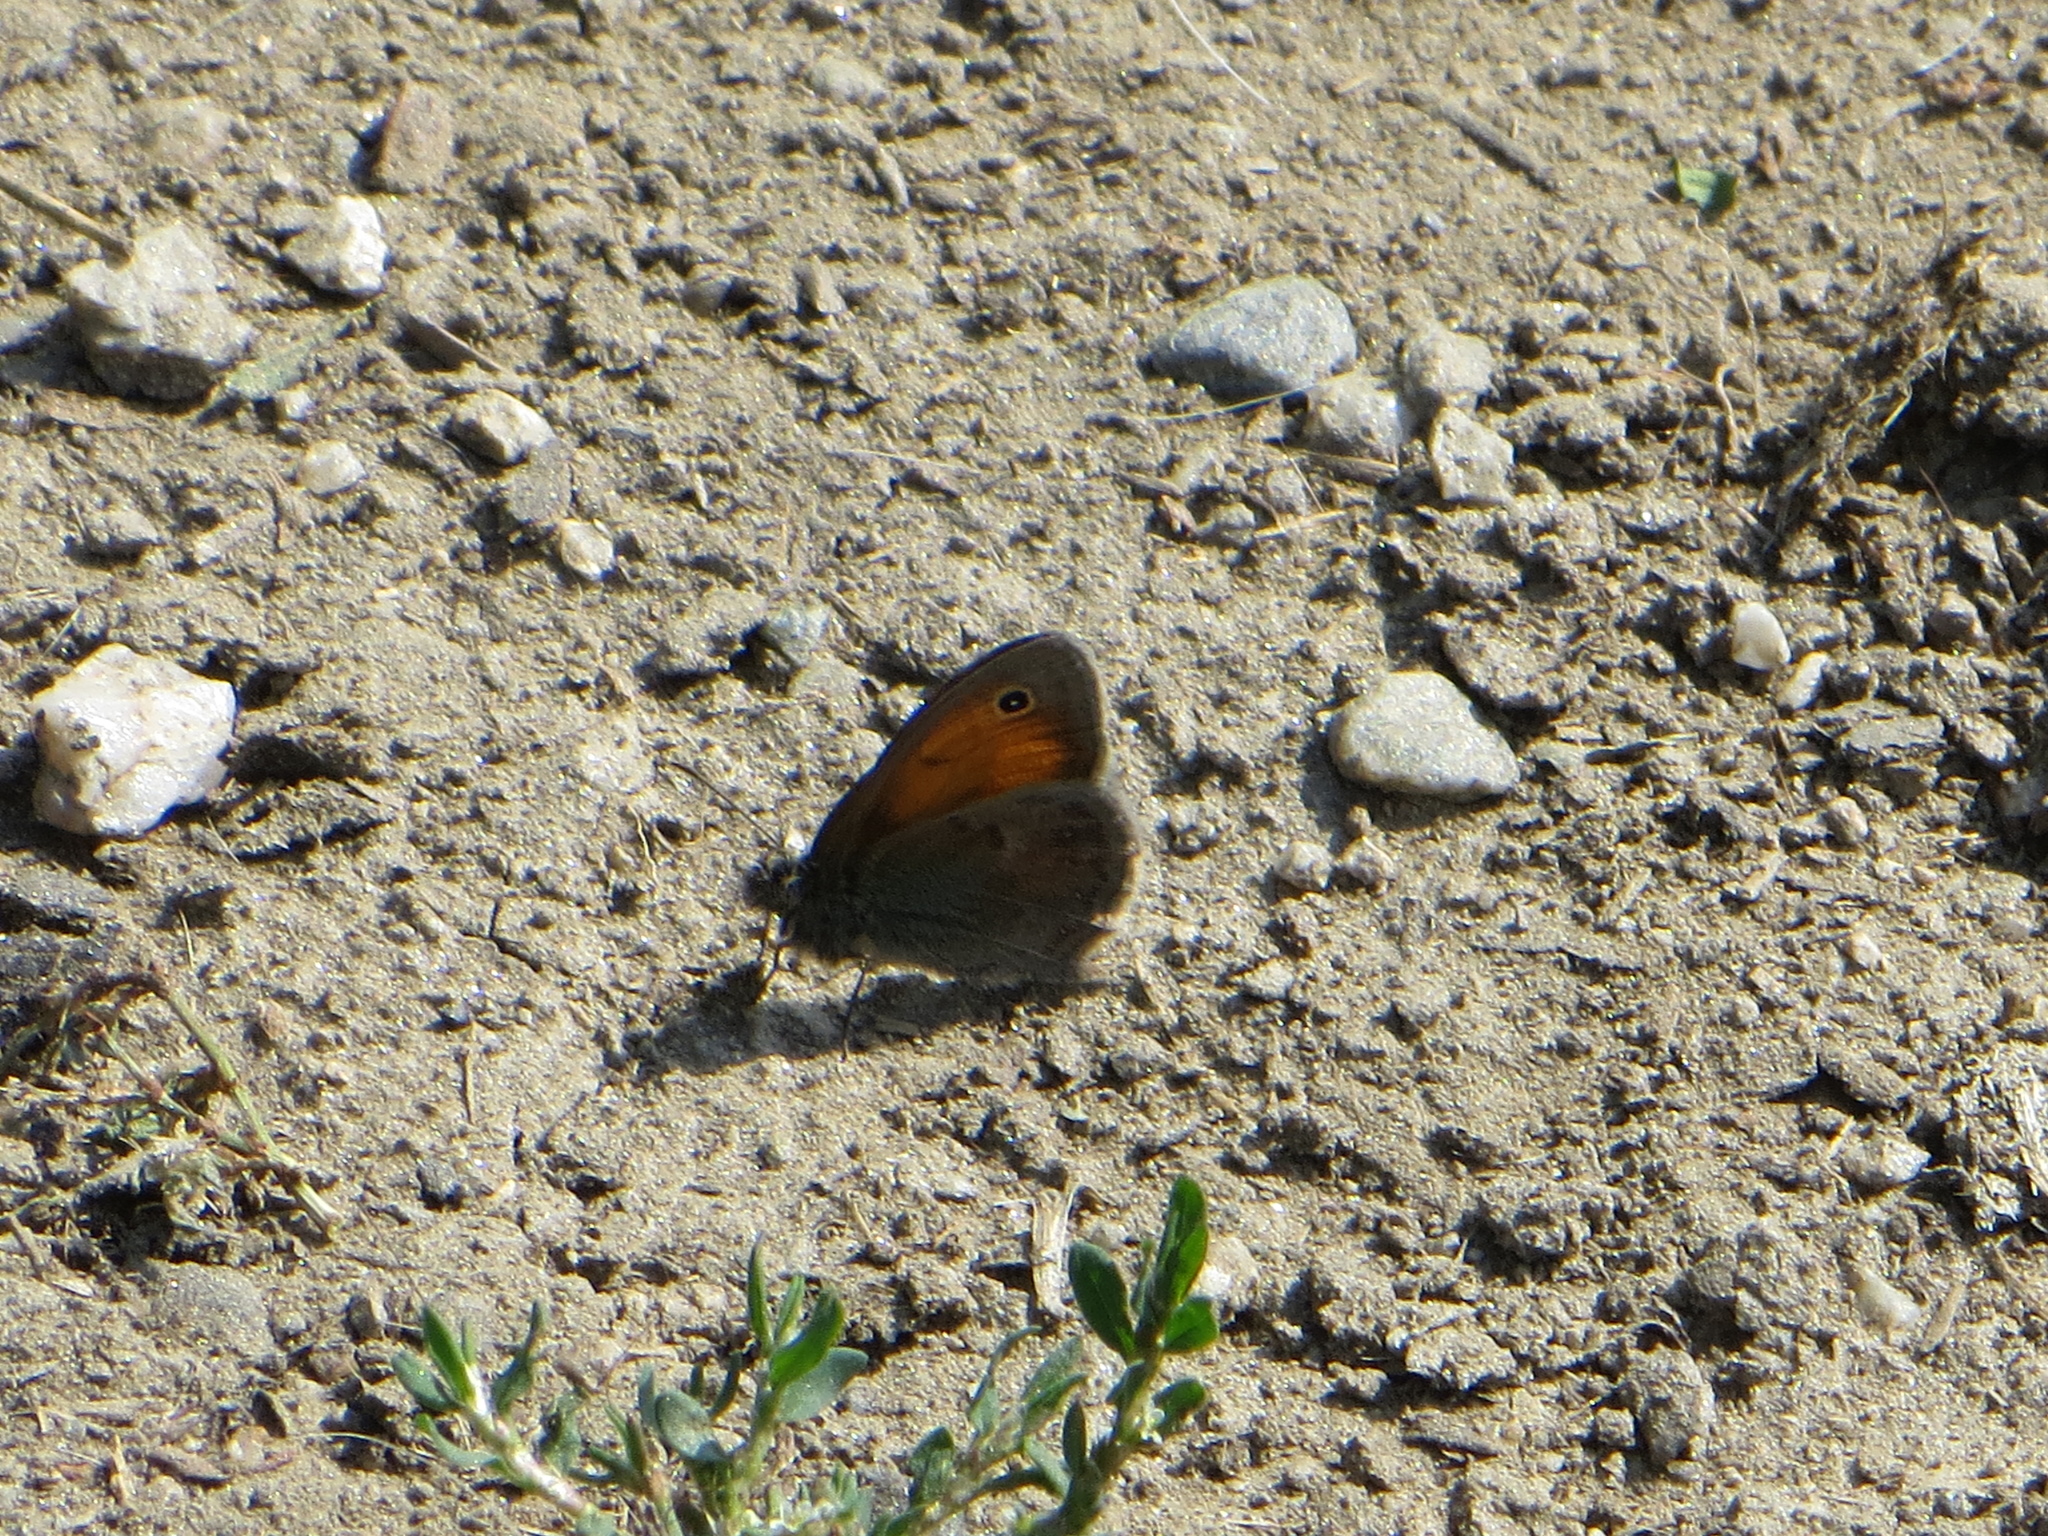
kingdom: Animalia
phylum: Arthropoda
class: Insecta
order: Lepidoptera
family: Nymphalidae
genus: Coenonympha
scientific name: Coenonympha pamphilus
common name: Small heath
